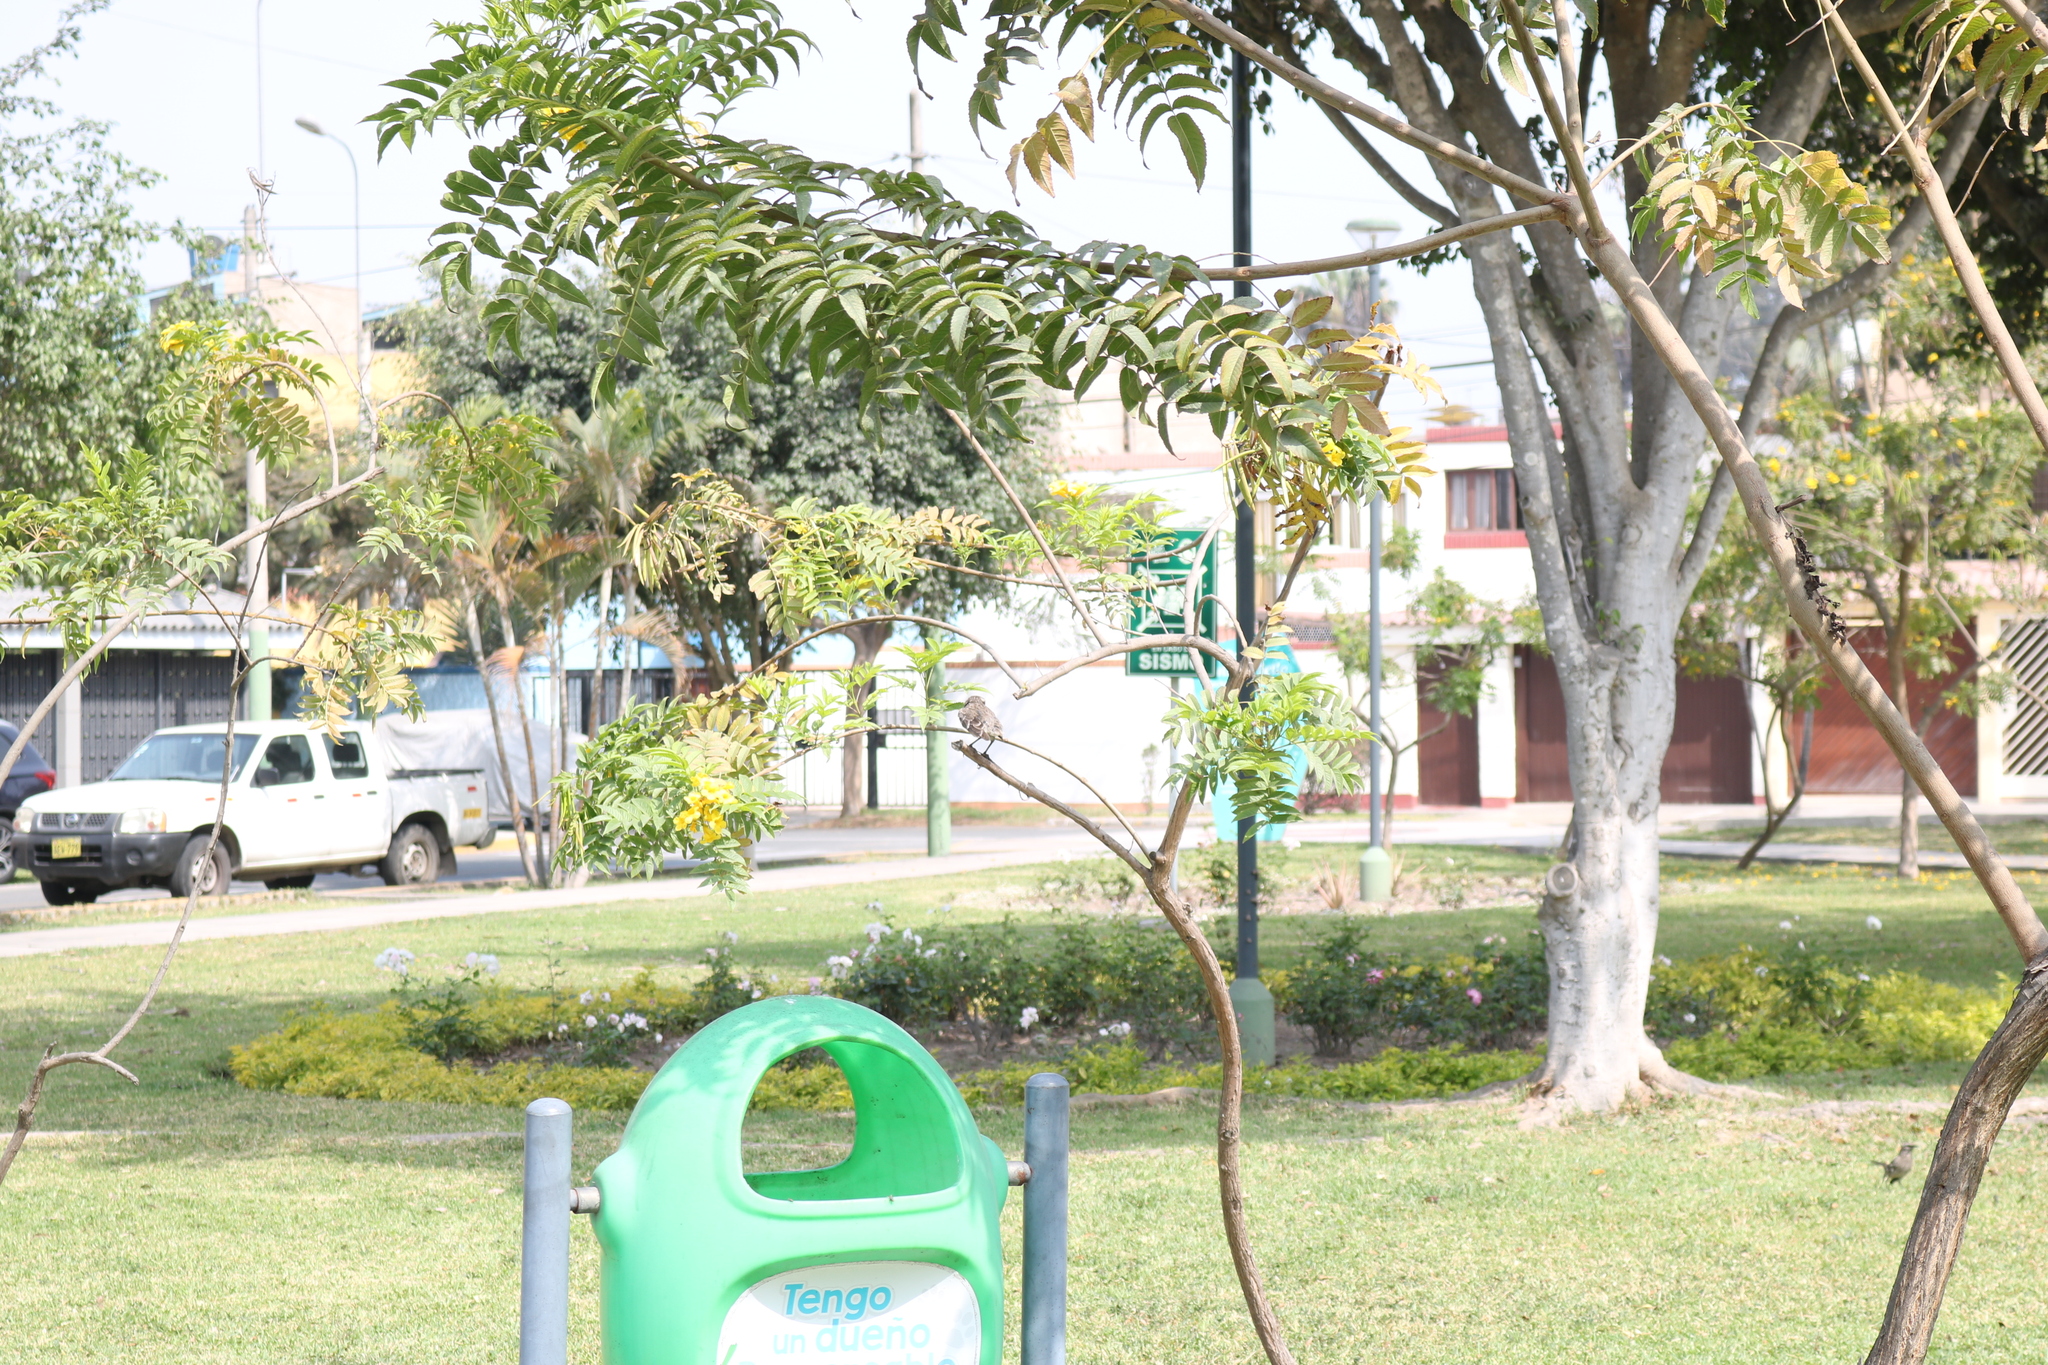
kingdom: Animalia
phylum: Chordata
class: Aves
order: Passeriformes
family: Mimidae
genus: Mimus
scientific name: Mimus longicaudatus
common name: Long-tailed mockingbird
